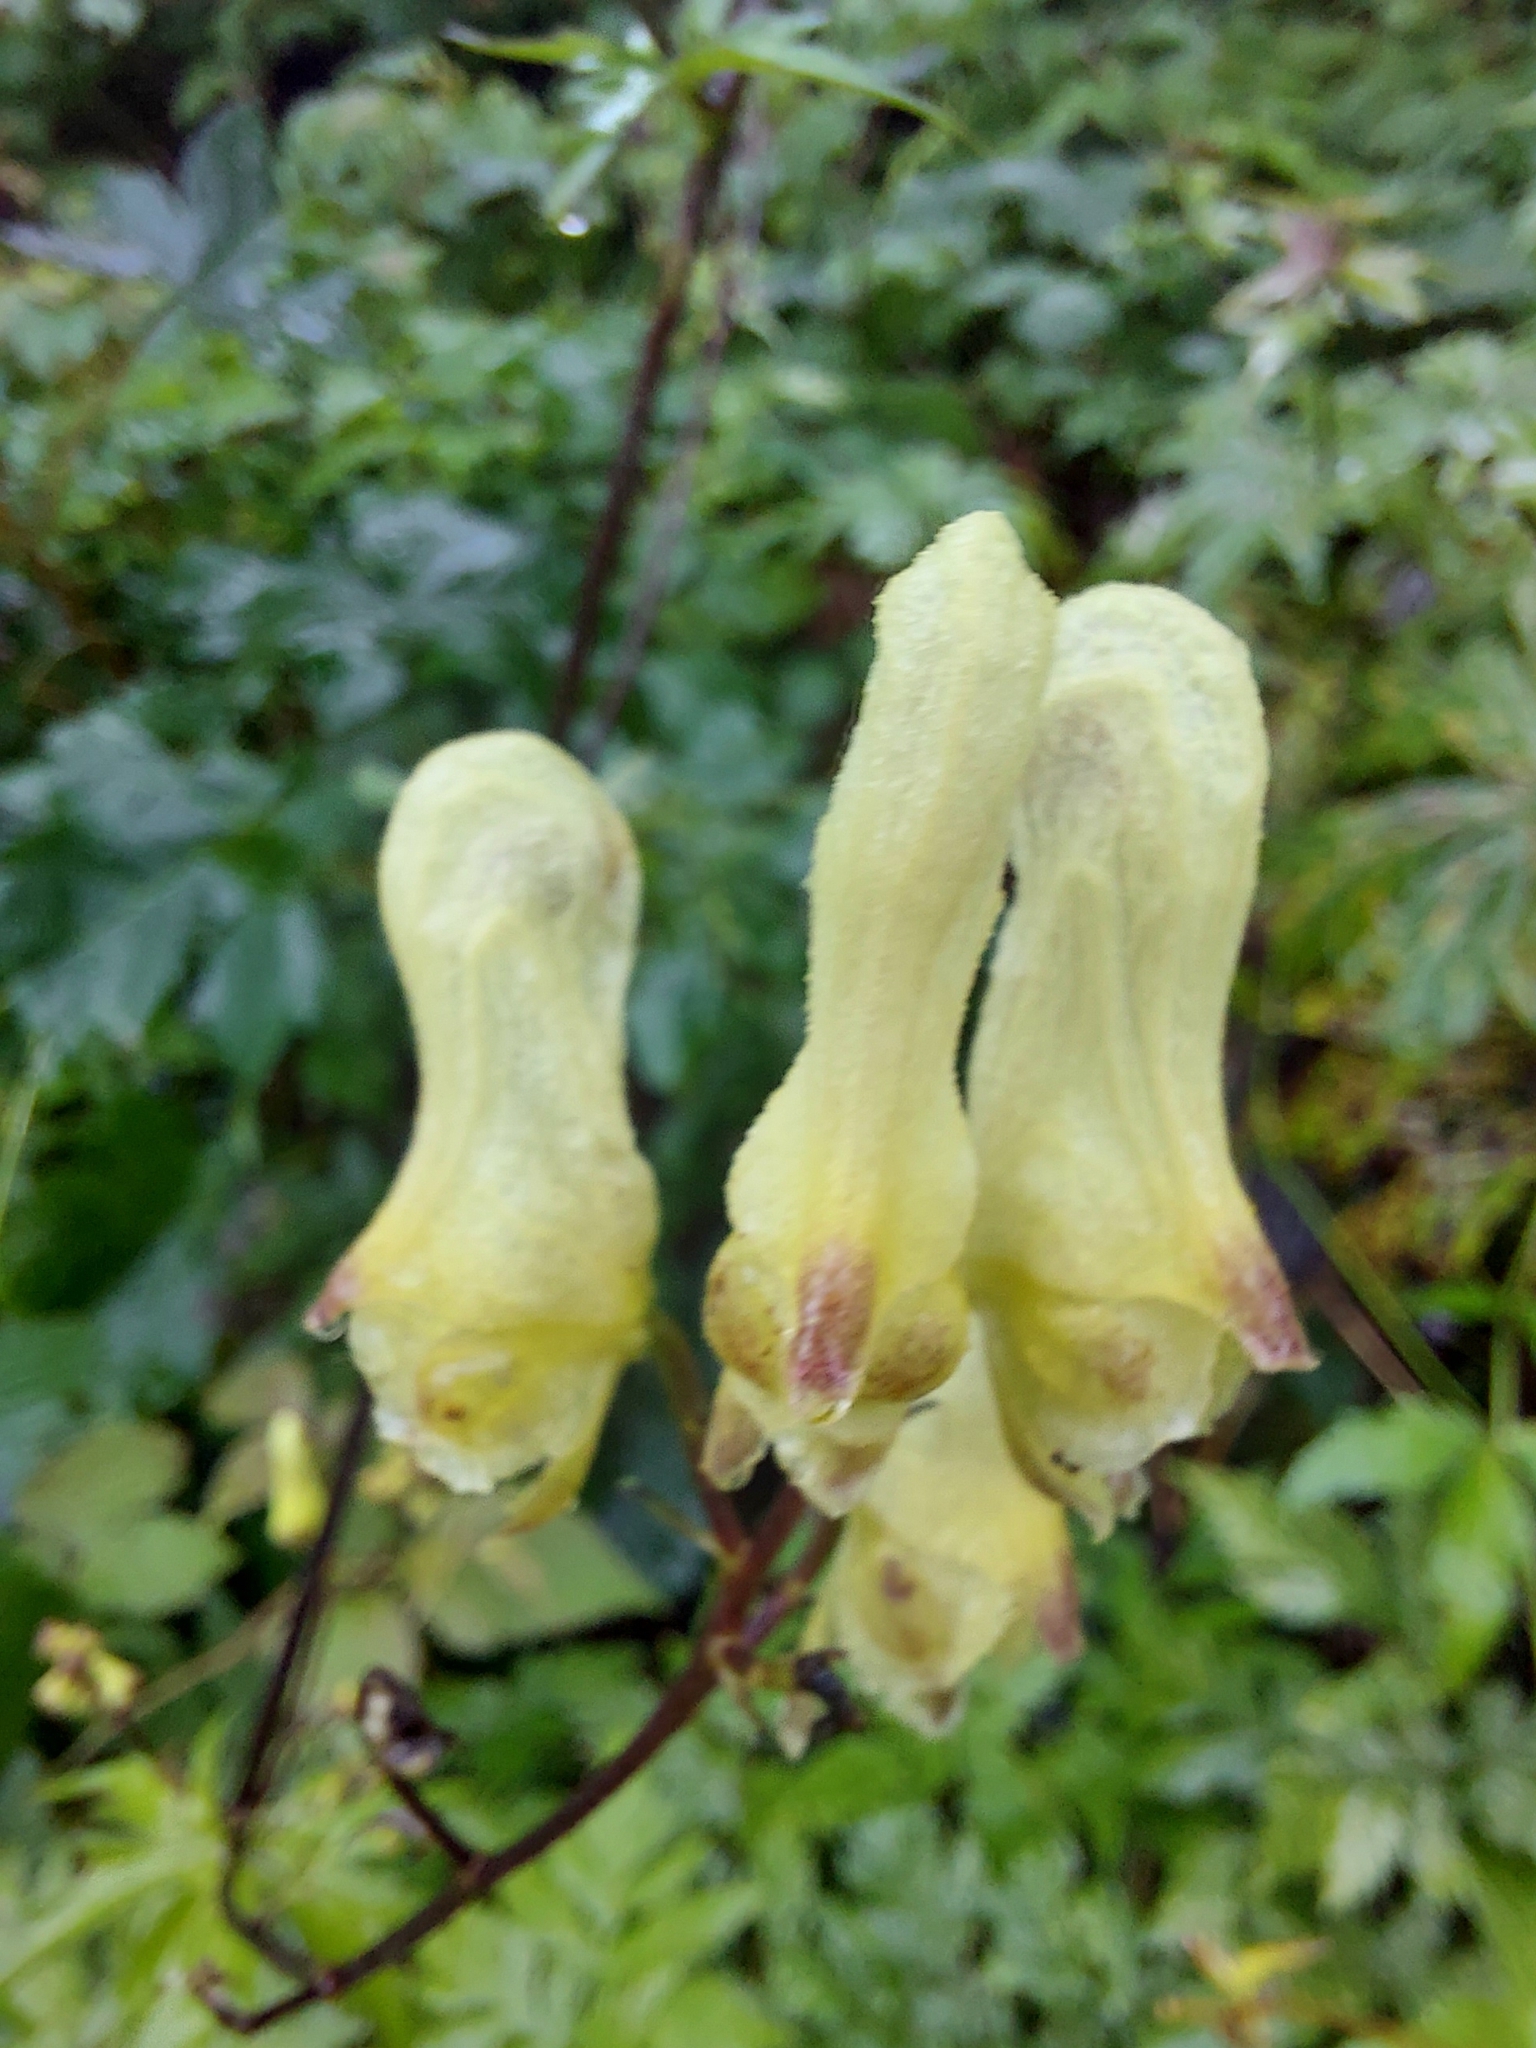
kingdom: Plantae
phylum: Tracheophyta
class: Magnoliopsida
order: Ranunculales
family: Ranunculaceae
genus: Aconitum
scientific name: Aconitum lycoctonum
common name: Wolf's-bane
